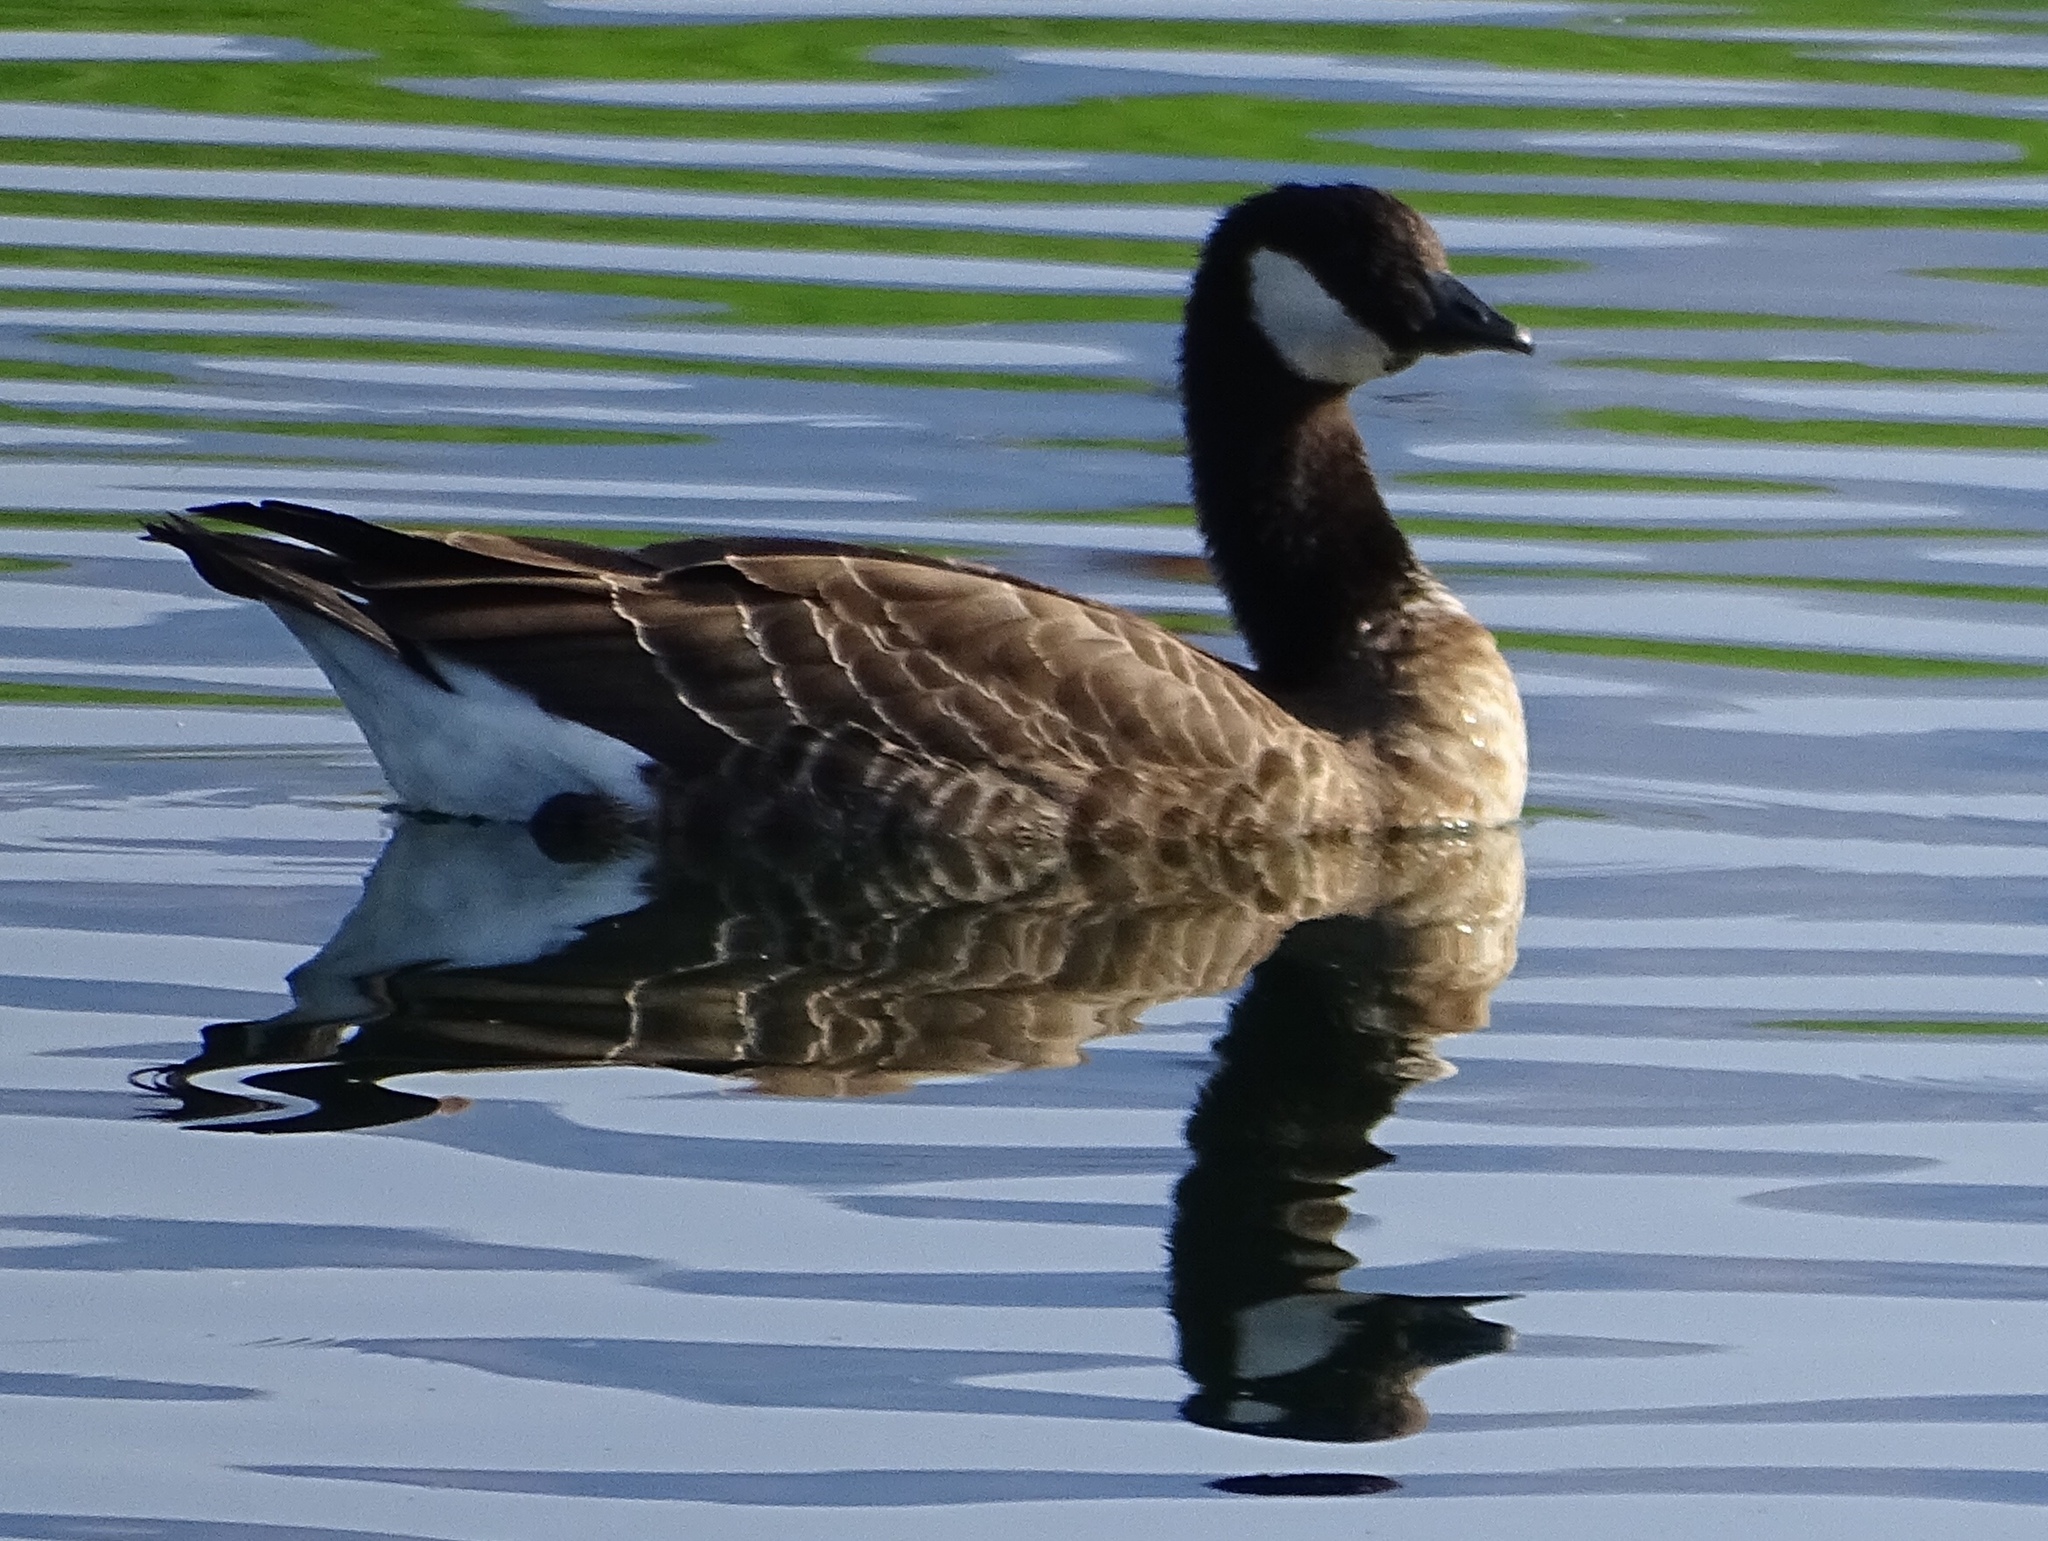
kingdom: Animalia
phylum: Chordata
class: Aves
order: Anseriformes
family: Anatidae
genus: Branta
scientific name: Branta hutchinsii
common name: Cackling goose
